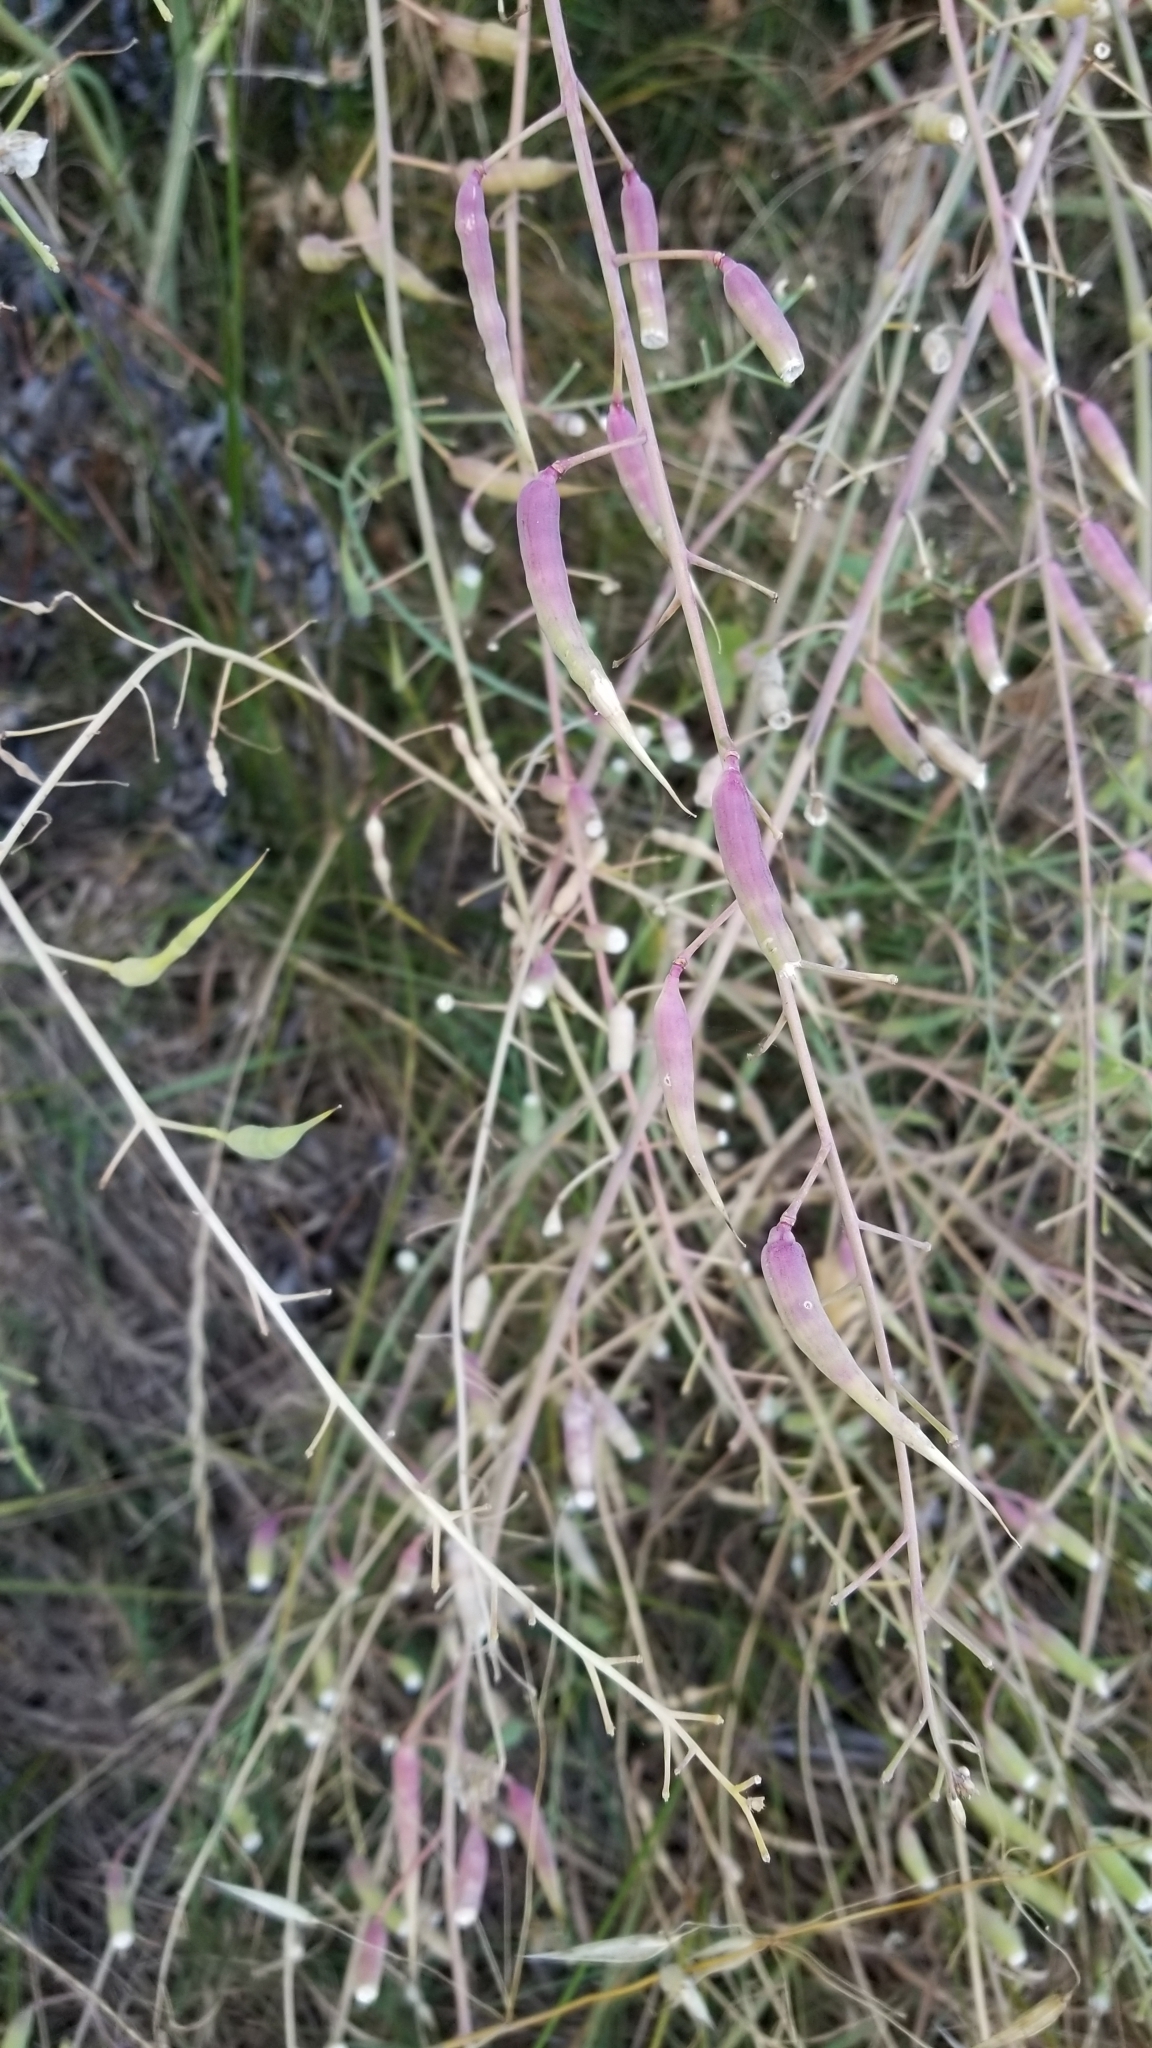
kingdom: Plantae
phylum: Tracheophyta
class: Magnoliopsida
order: Brassicales
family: Brassicaceae
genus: Raphanus
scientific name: Raphanus sativus
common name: Cultivated radish
